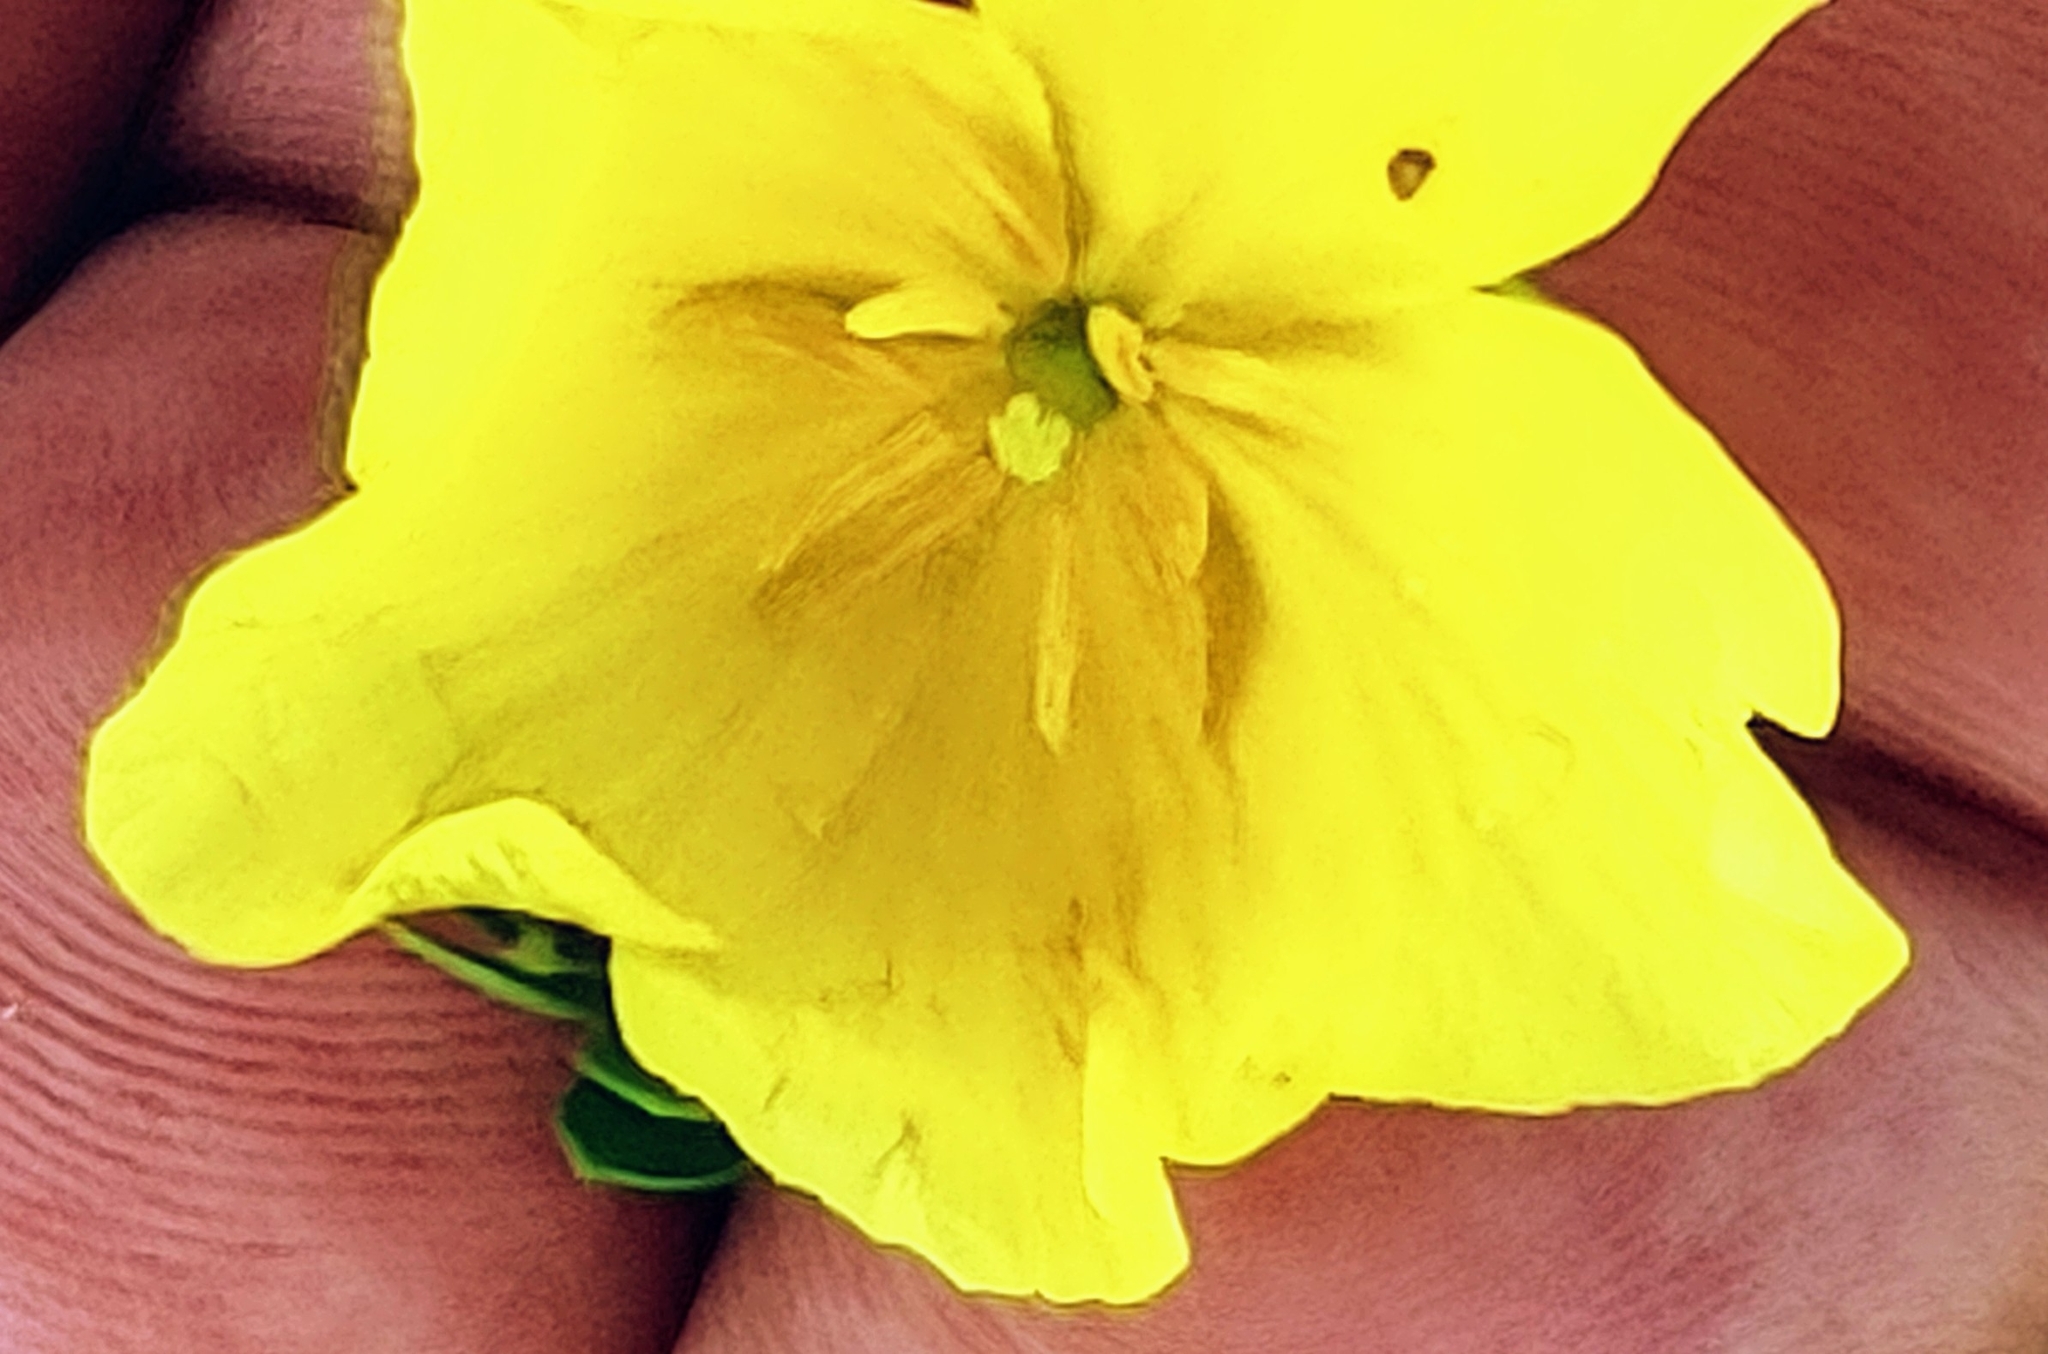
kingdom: Plantae
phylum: Tracheophyta
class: Magnoliopsida
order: Zygophyllales
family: Zygophyllaceae
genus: Tribulus
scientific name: Tribulus cistoides
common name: Jamaican feverplant
